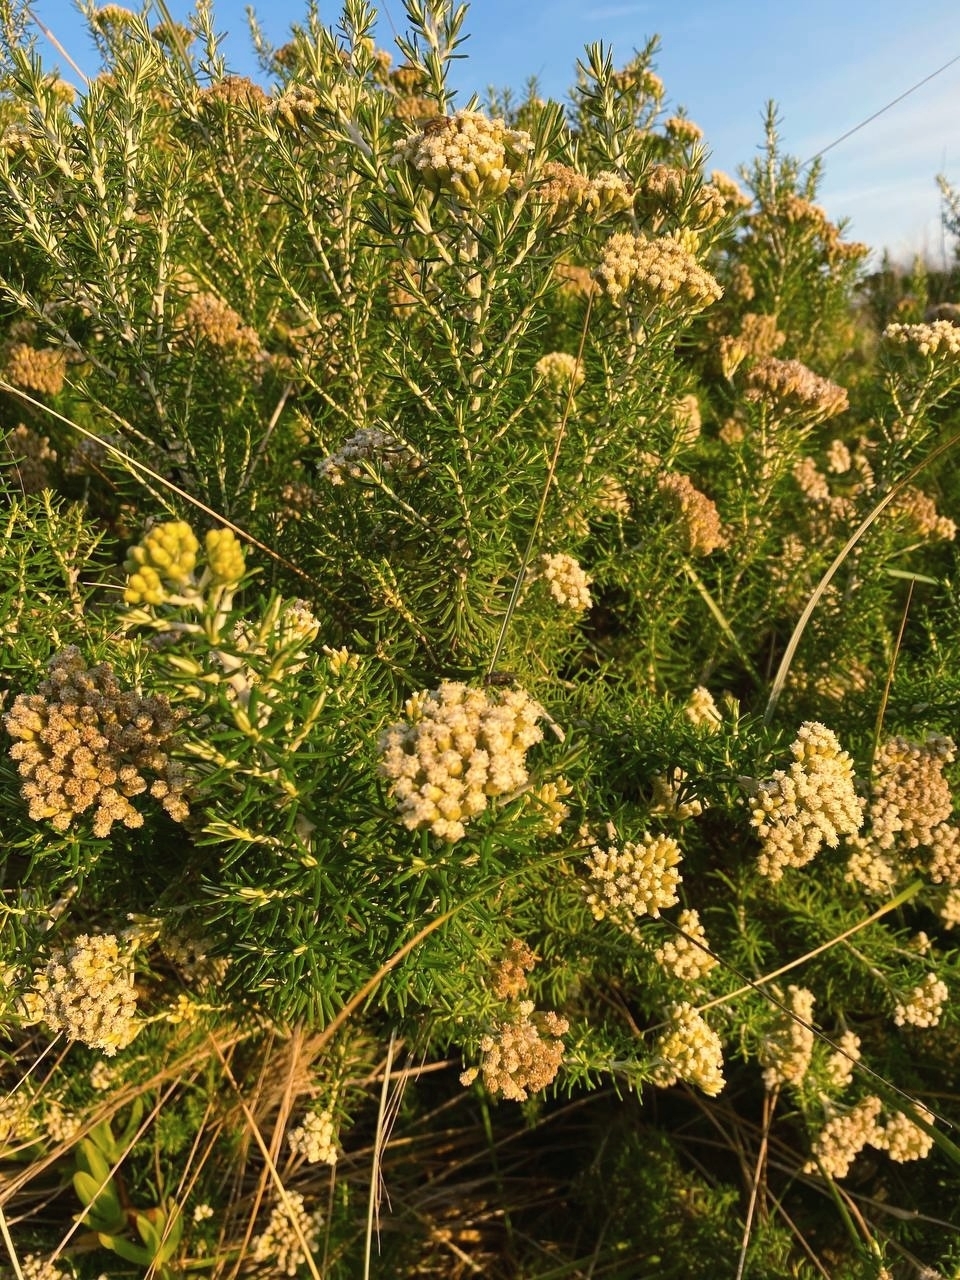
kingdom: Plantae
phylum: Tracheophyta
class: Magnoliopsida
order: Asterales
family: Asteraceae
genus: Ozothamnus
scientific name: Ozothamnus cinereus
